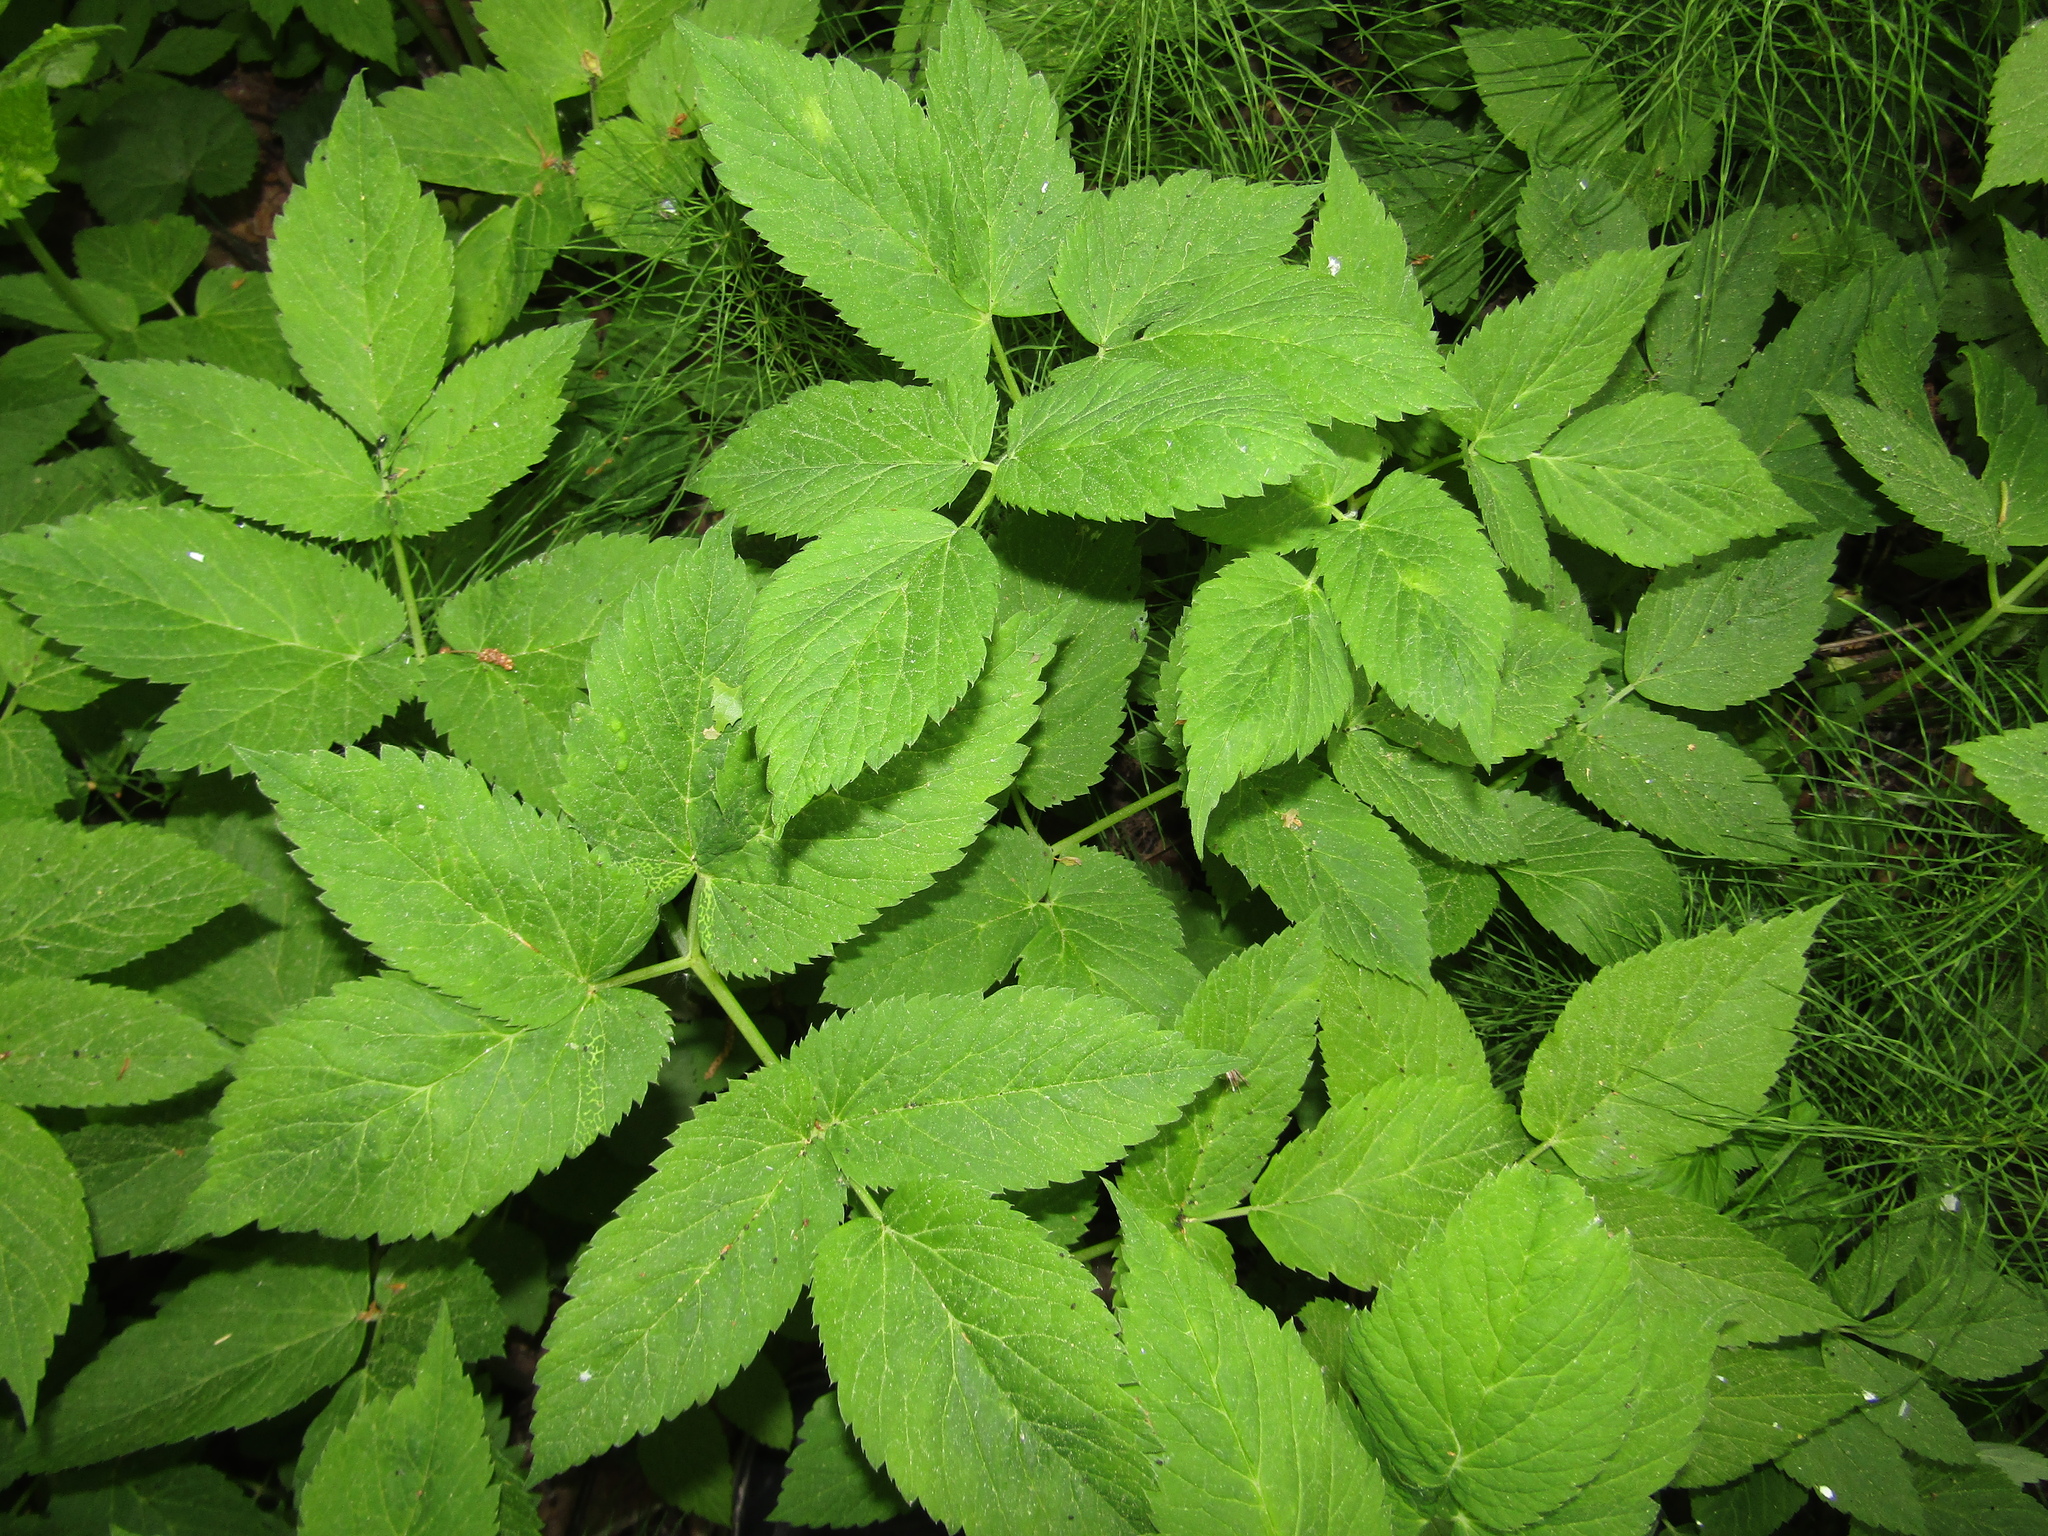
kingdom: Plantae
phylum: Tracheophyta
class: Magnoliopsida
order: Apiales
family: Apiaceae
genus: Aegopodium
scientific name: Aegopodium podagraria
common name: Ground-elder
